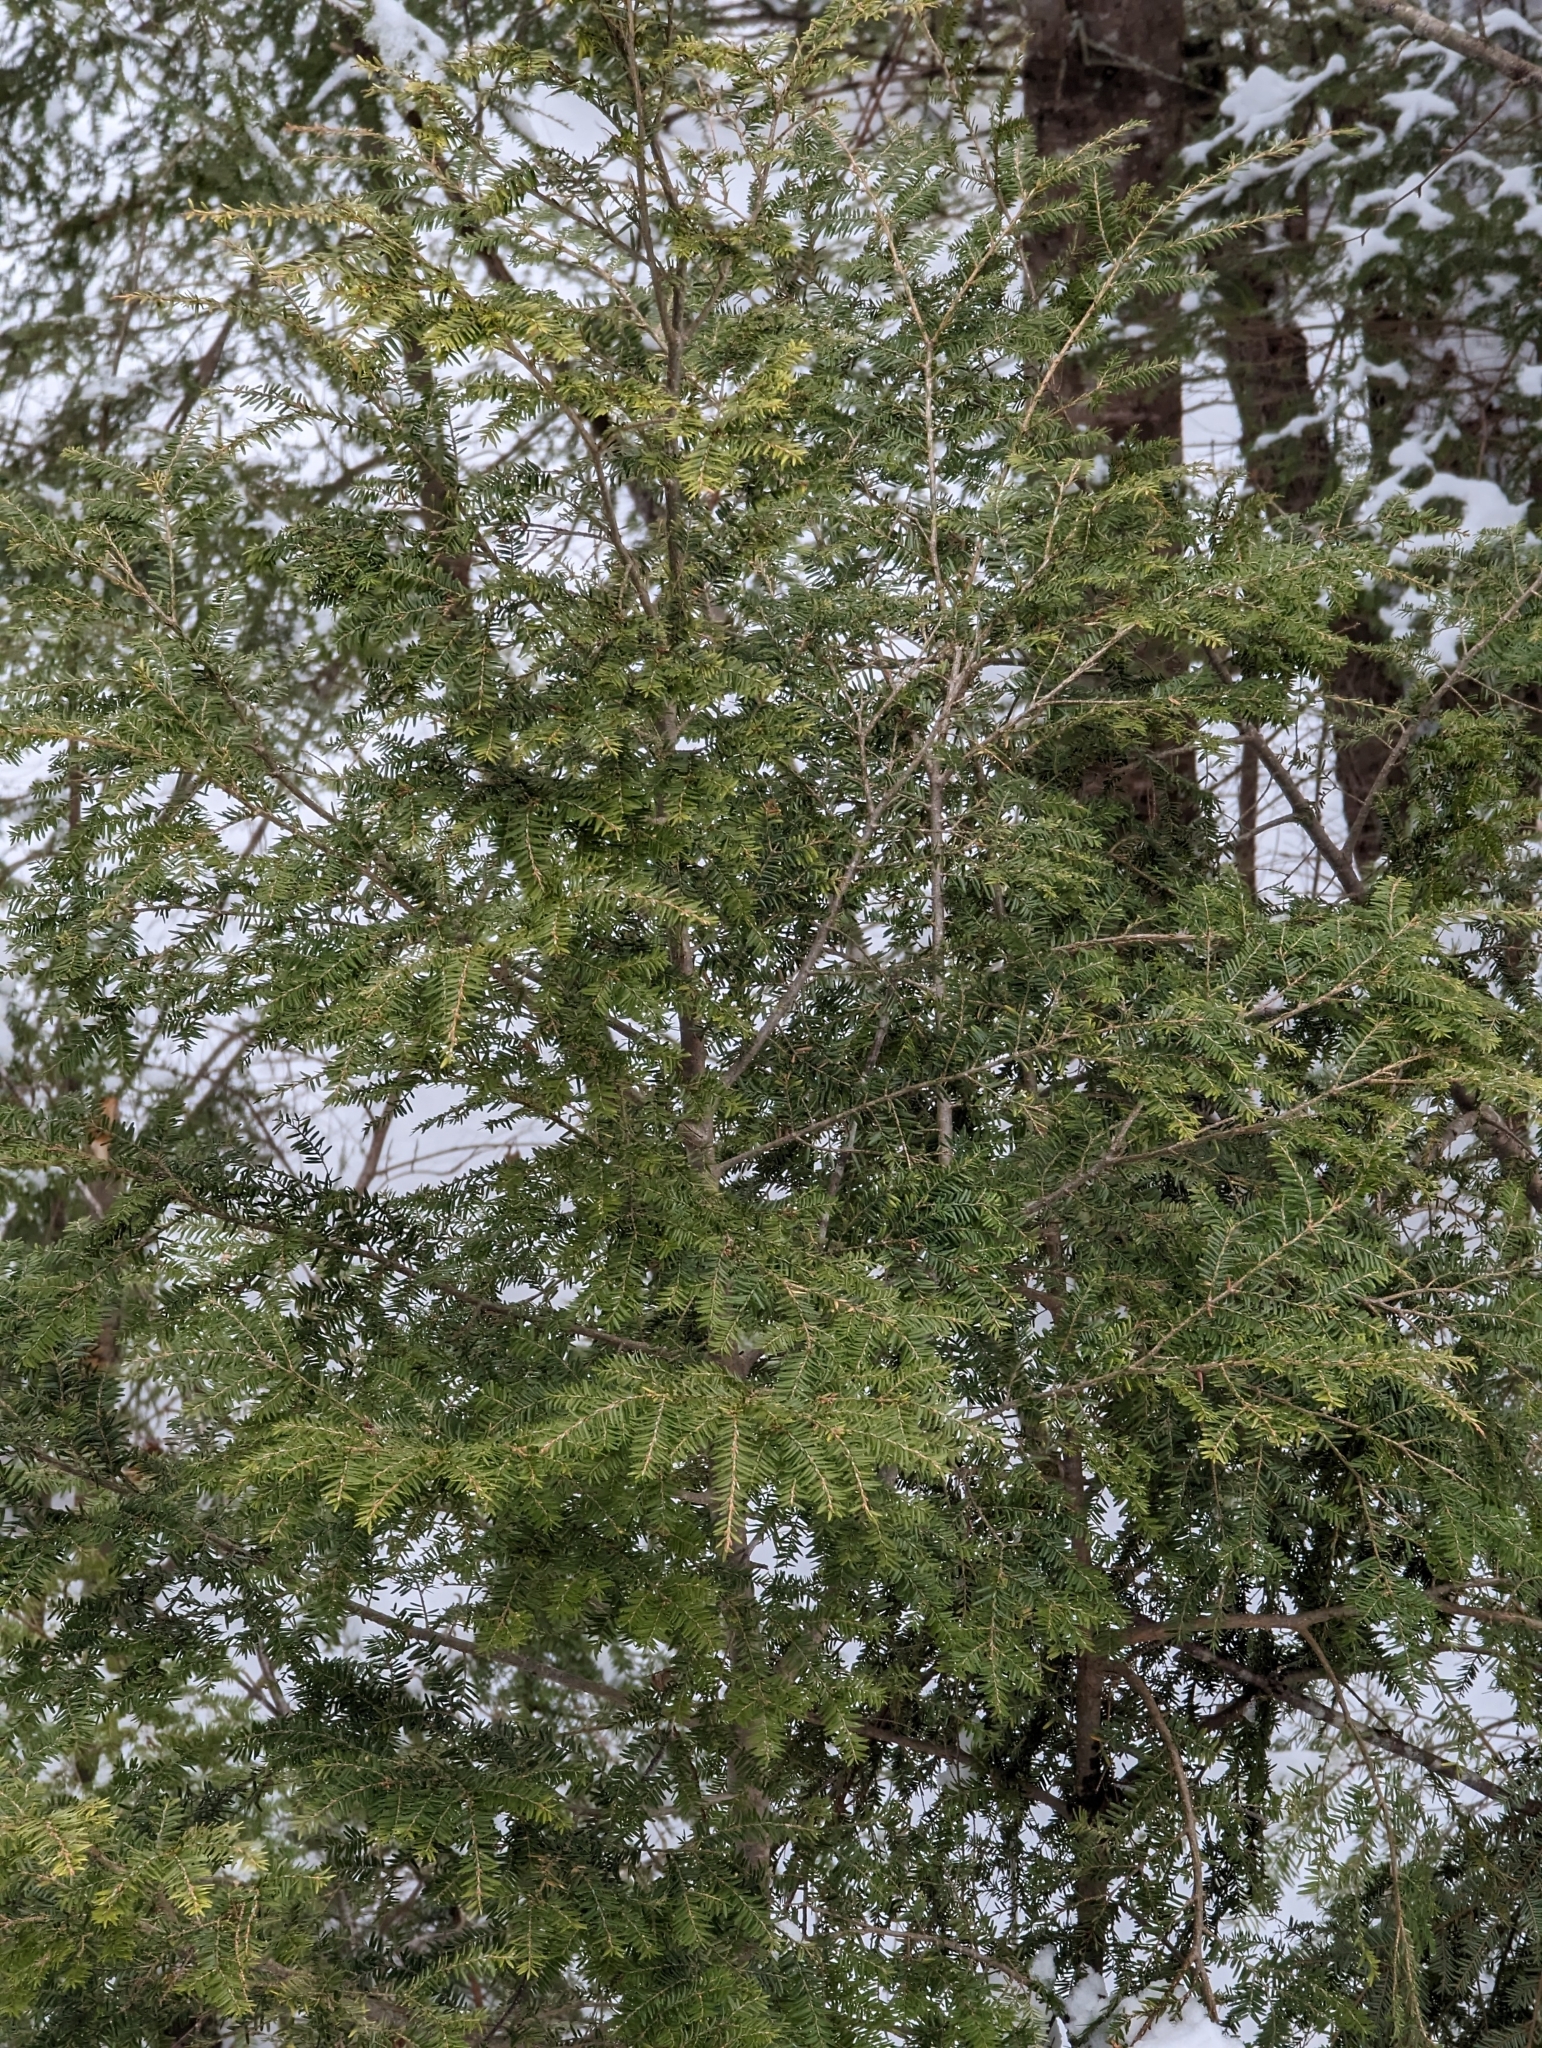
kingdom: Plantae
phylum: Tracheophyta
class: Pinopsida
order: Pinales
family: Pinaceae
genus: Tsuga
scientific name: Tsuga canadensis
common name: Eastern hemlock
